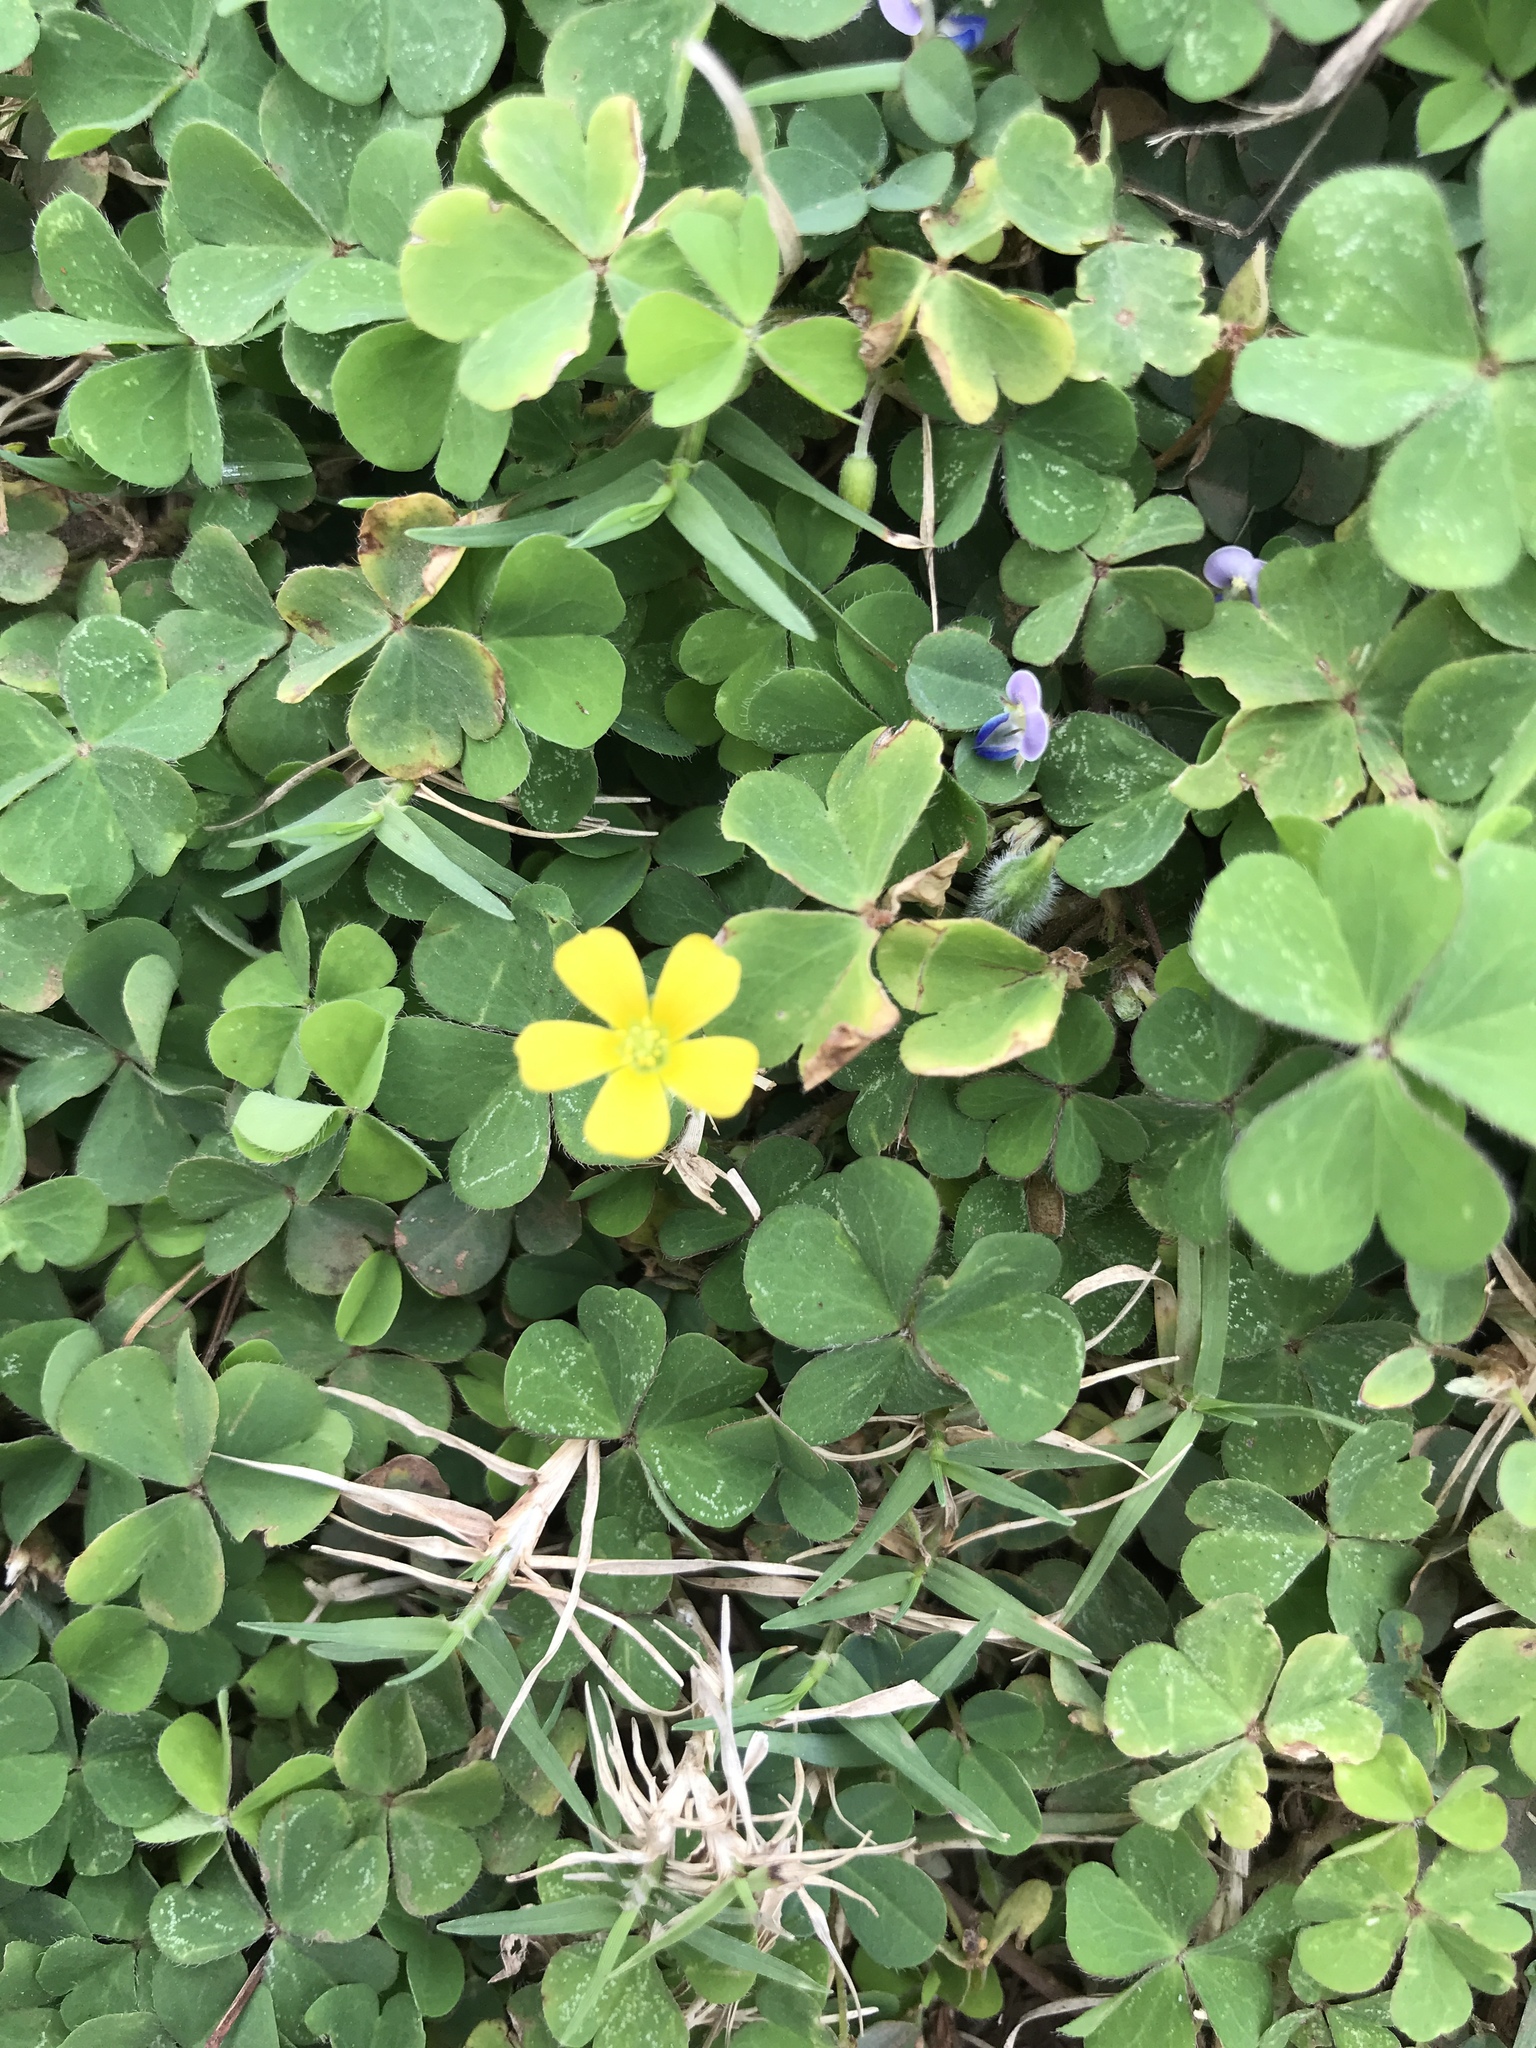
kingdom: Plantae
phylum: Tracheophyta
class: Magnoliopsida
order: Oxalidales
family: Oxalidaceae
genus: Oxalis
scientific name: Oxalis corniculata
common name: Procumbent yellow-sorrel
